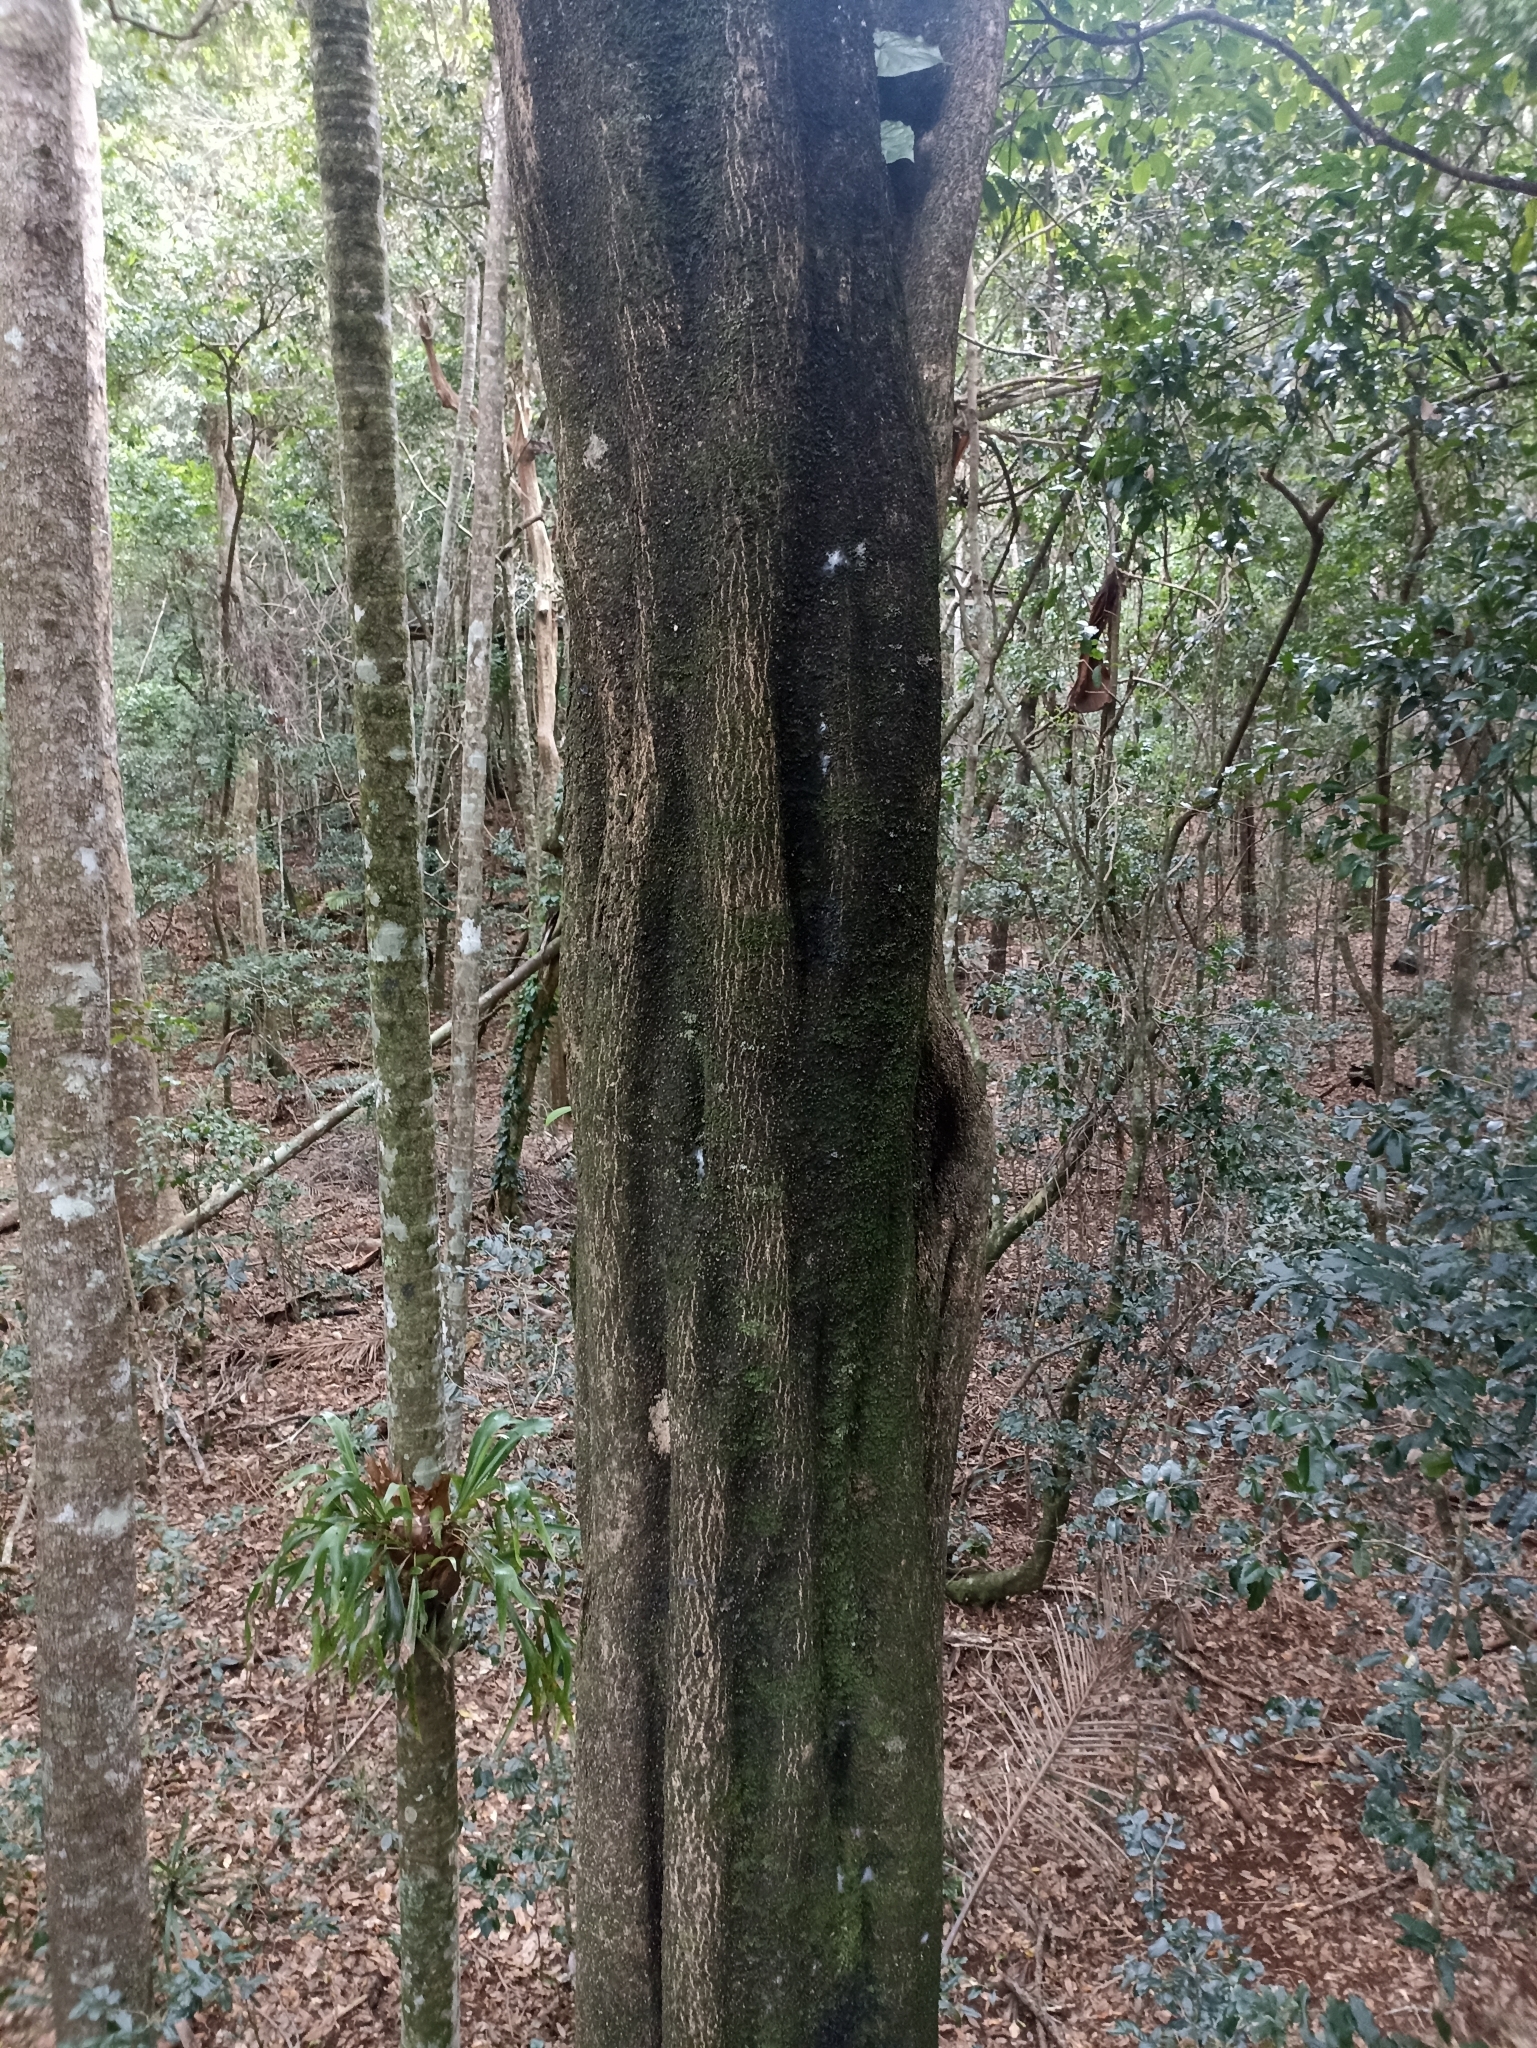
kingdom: Plantae
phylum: Tracheophyta
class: Magnoliopsida
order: Lamiales
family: Oleaceae
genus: Olea
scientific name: Olea paniculata
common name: Australian olive
